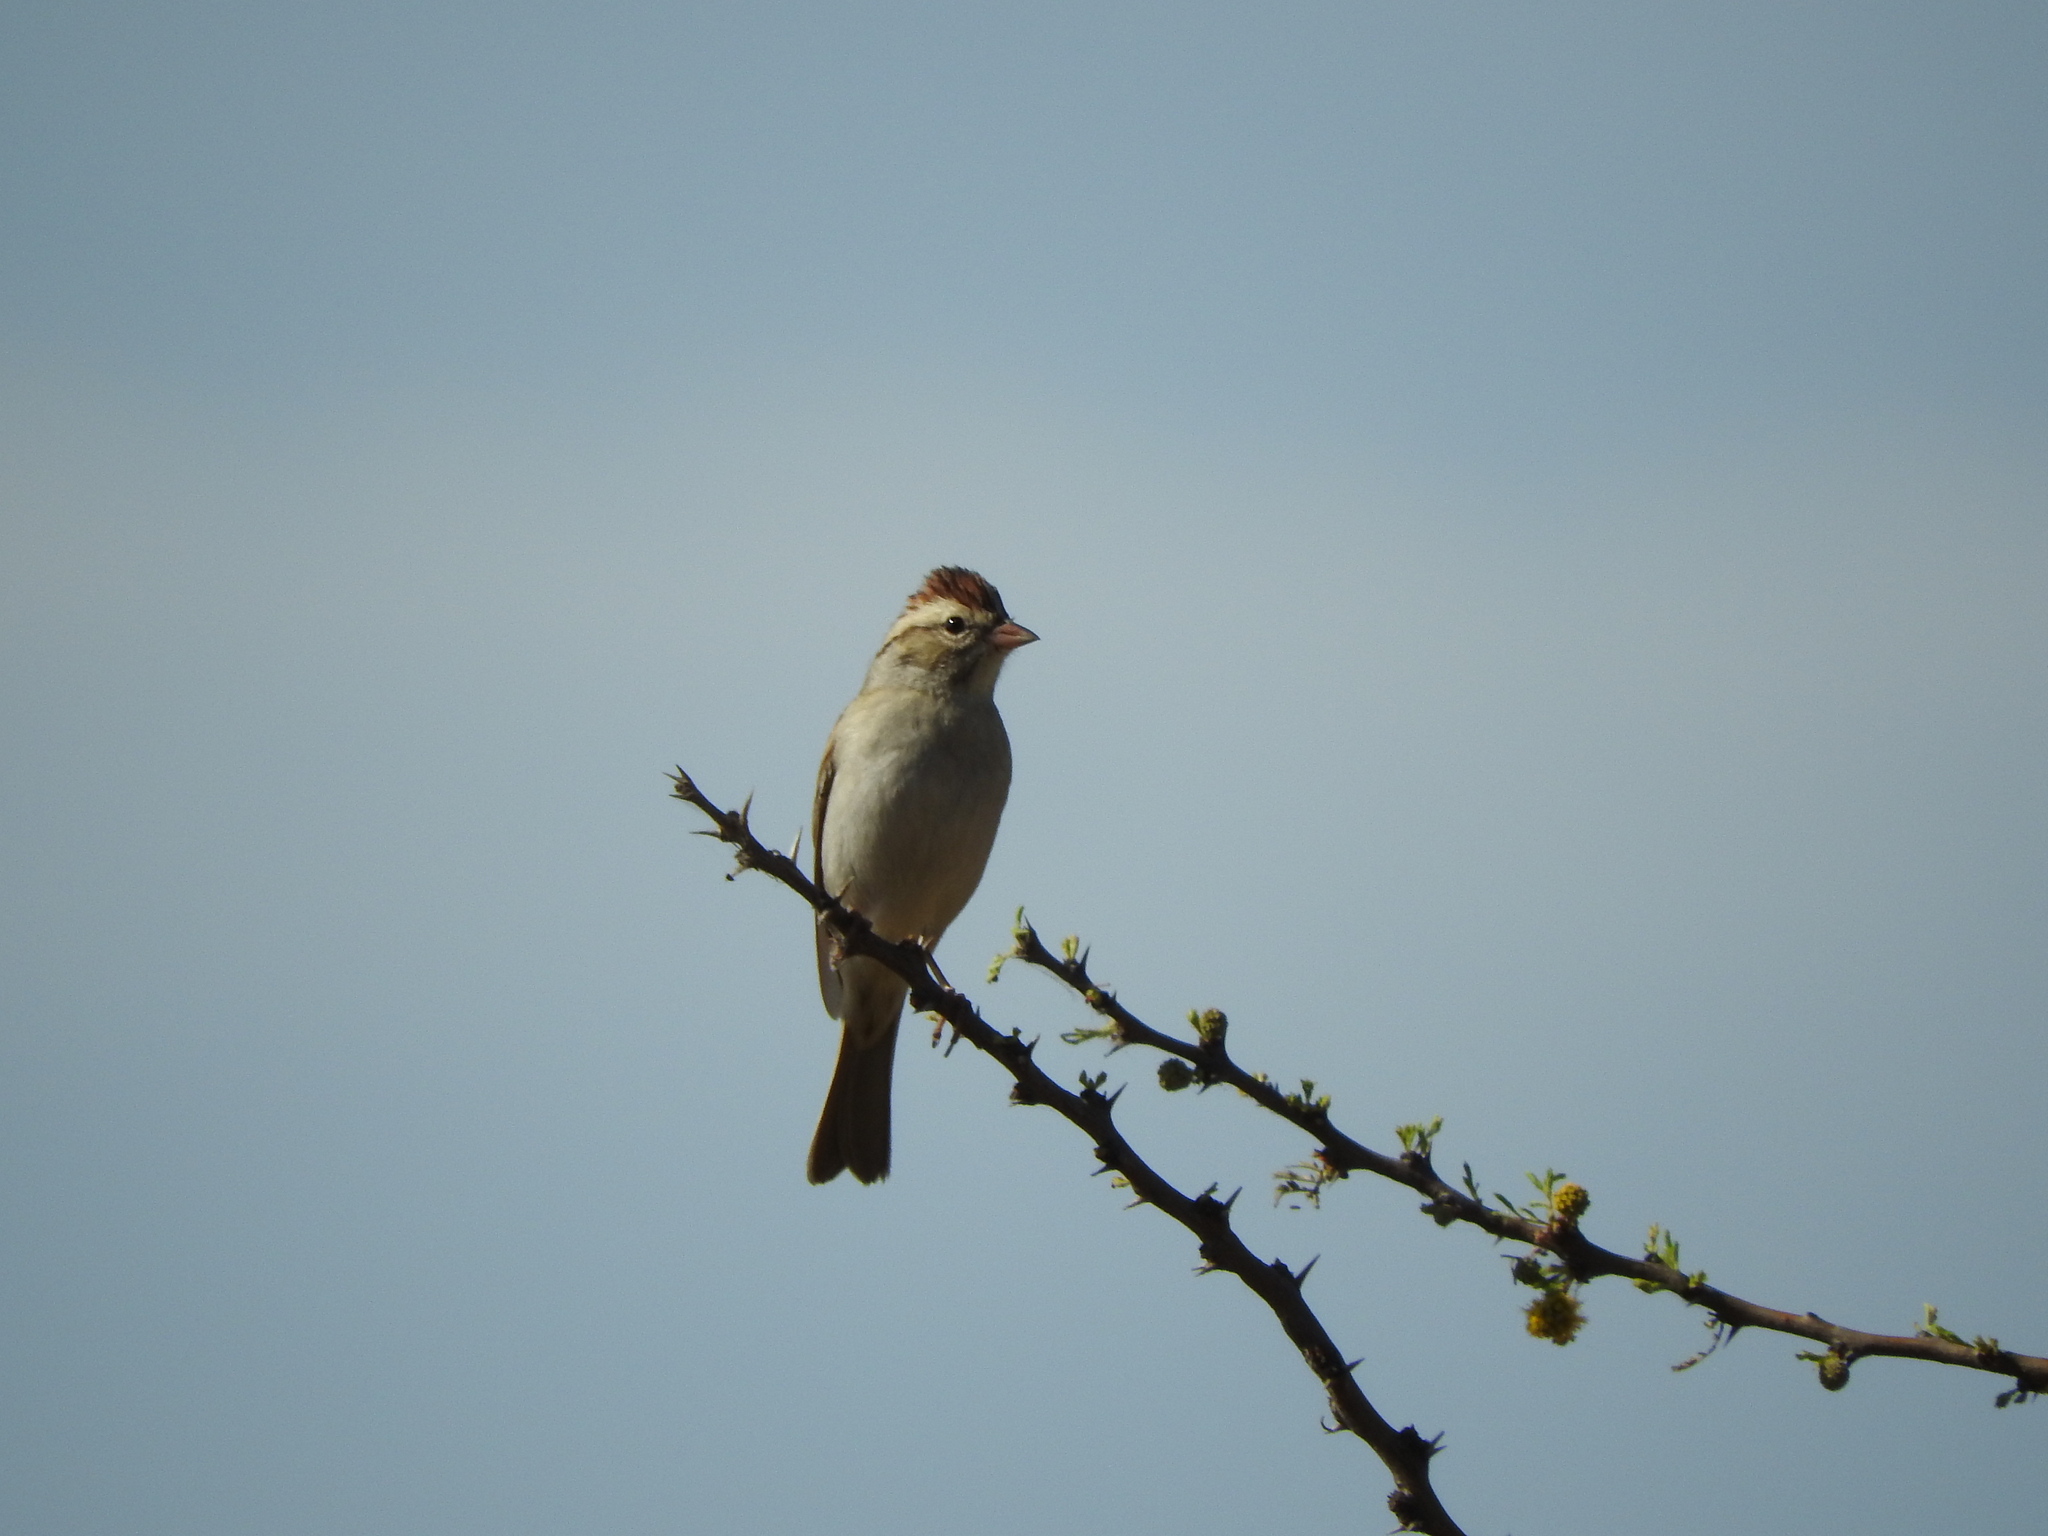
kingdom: Animalia
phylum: Chordata
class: Aves
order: Passeriformes
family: Passerellidae
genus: Spizella
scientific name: Spizella passerina
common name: Chipping sparrow
